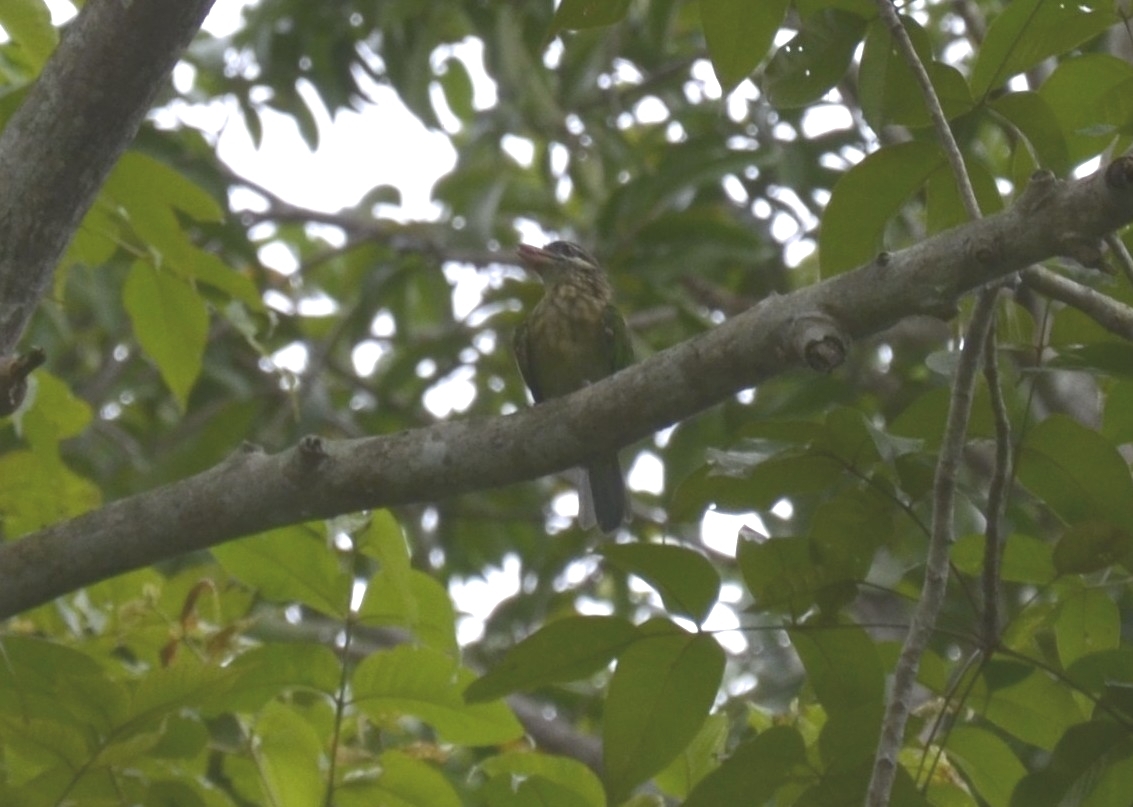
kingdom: Animalia
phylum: Chordata
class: Aves
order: Piciformes
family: Megalaimidae
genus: Psilopogon
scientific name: Psilopogon viridis
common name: White-cheeked barbet
